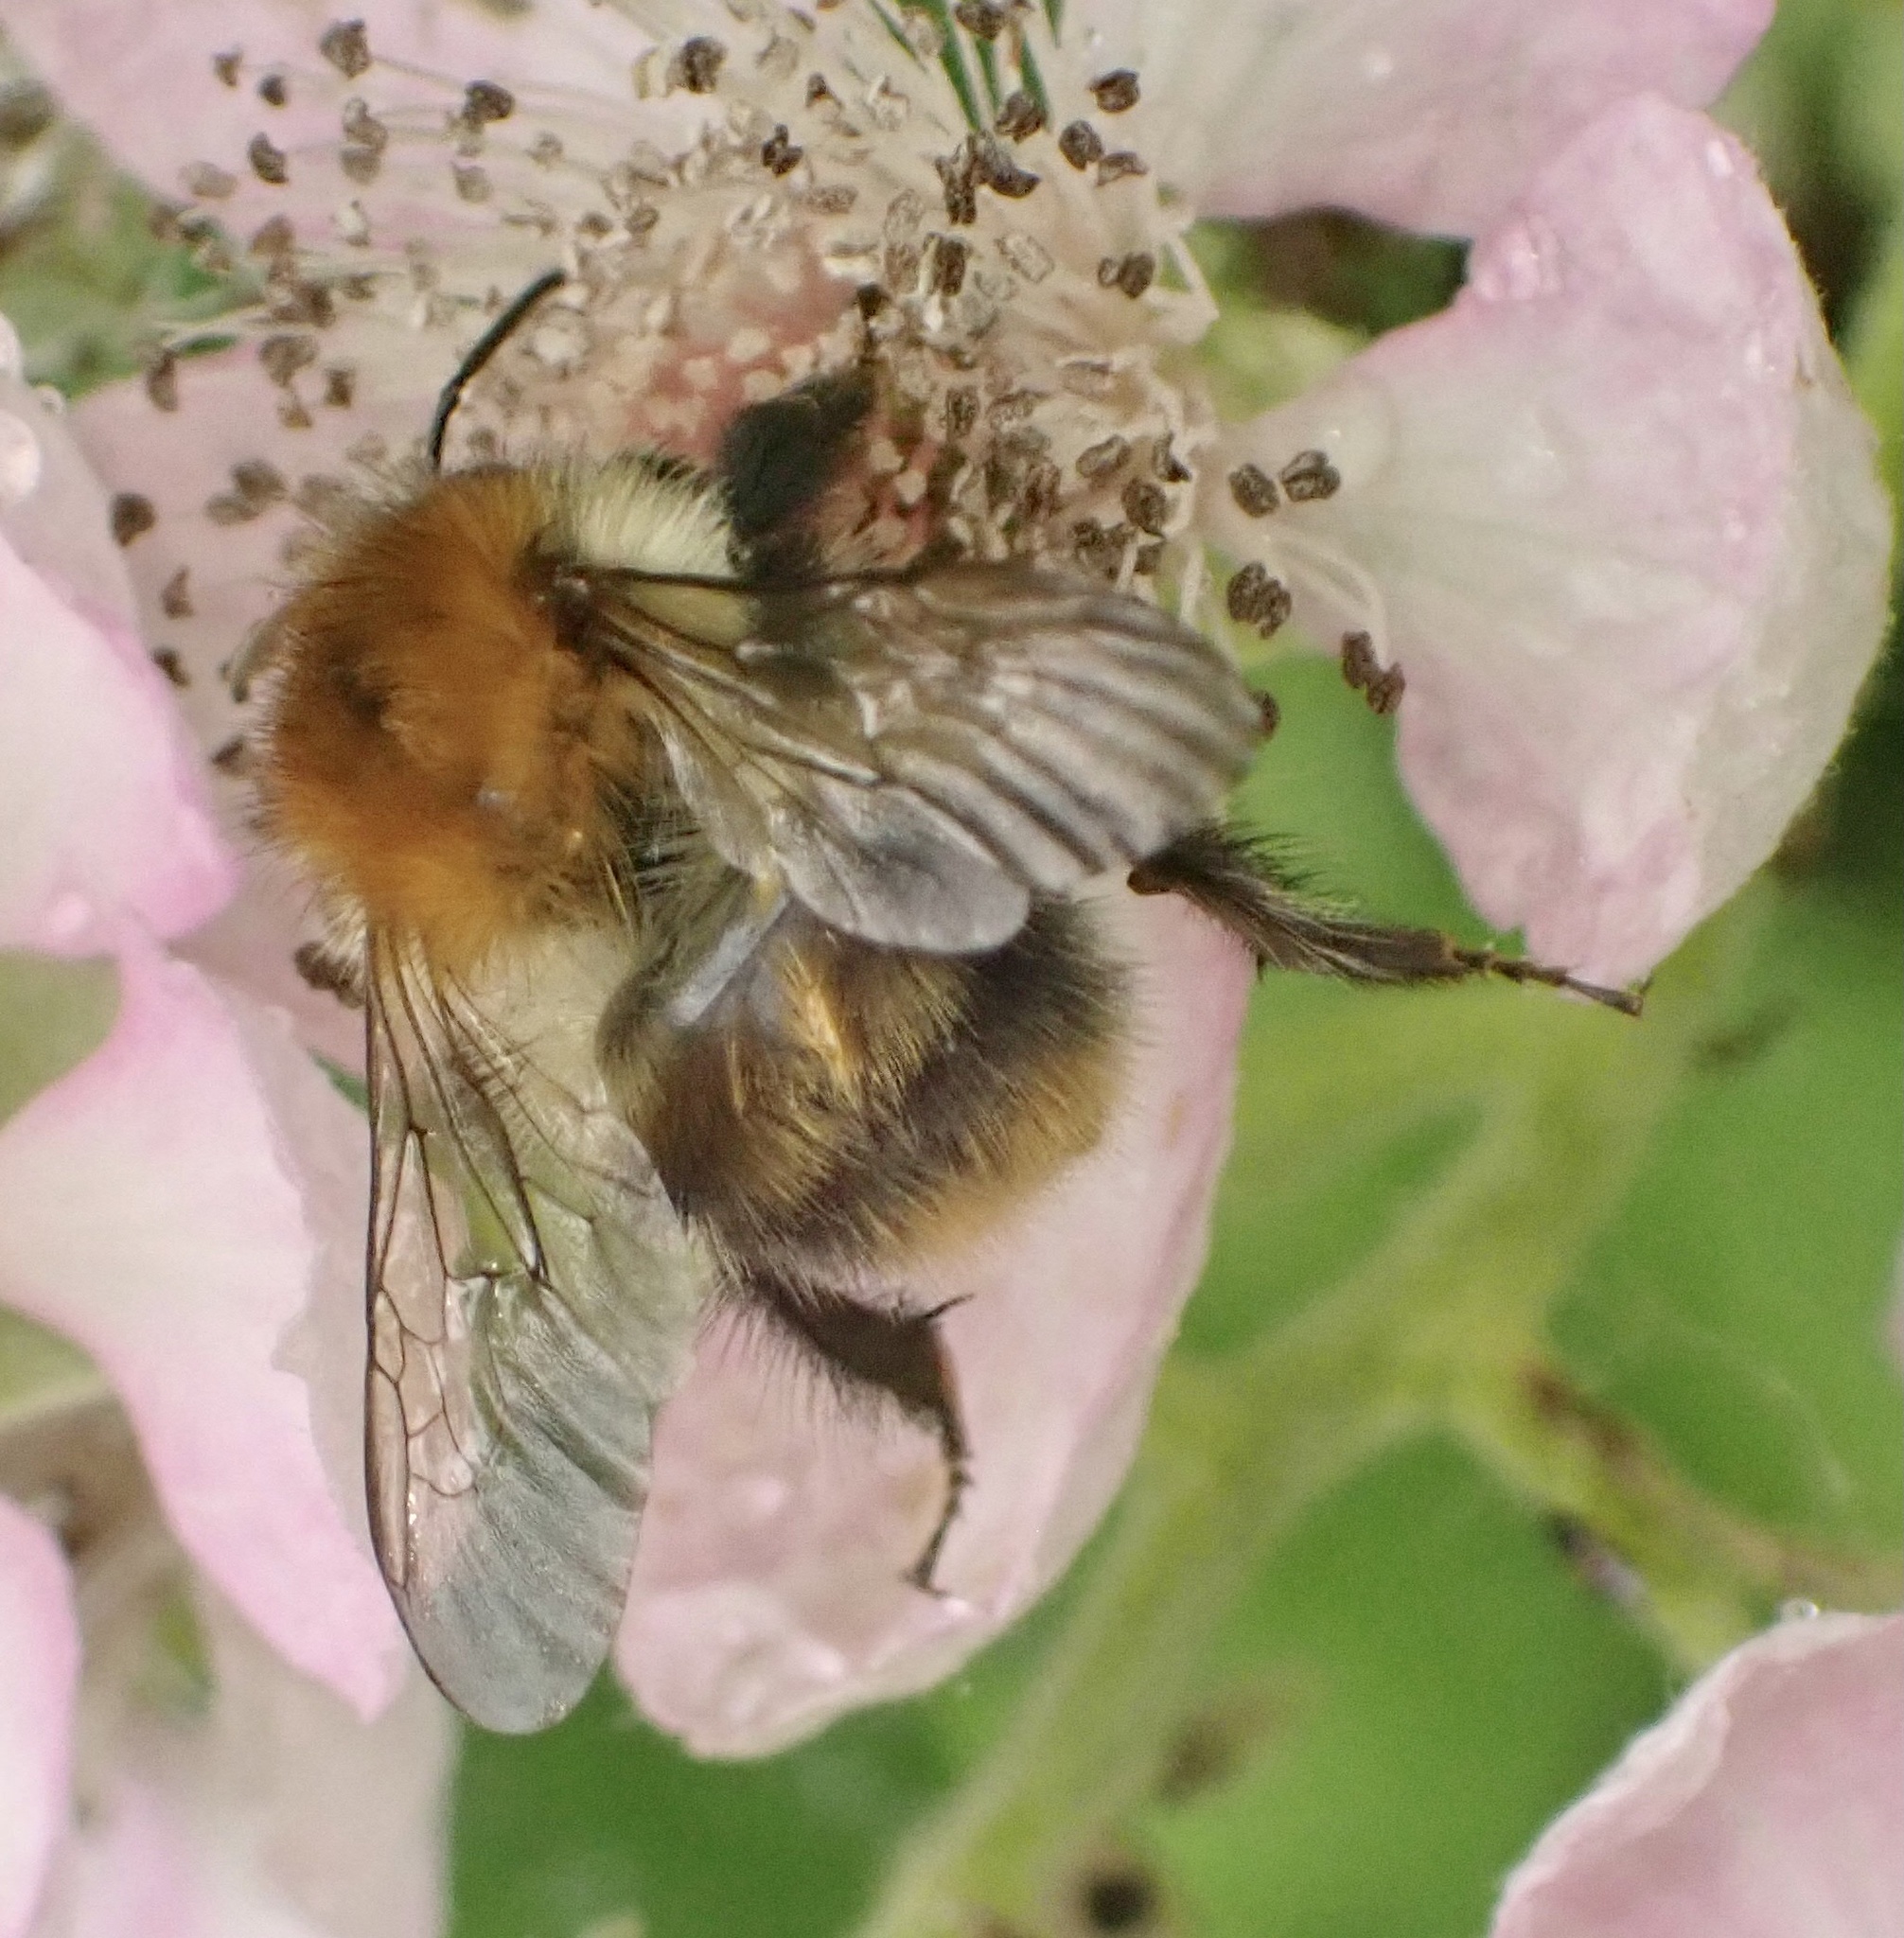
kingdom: Animalia
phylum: Arthropoda
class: Insecta
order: Hymenoptera
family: Apidae
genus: Bombus
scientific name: Bombus pascuorum
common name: Common carder bee
